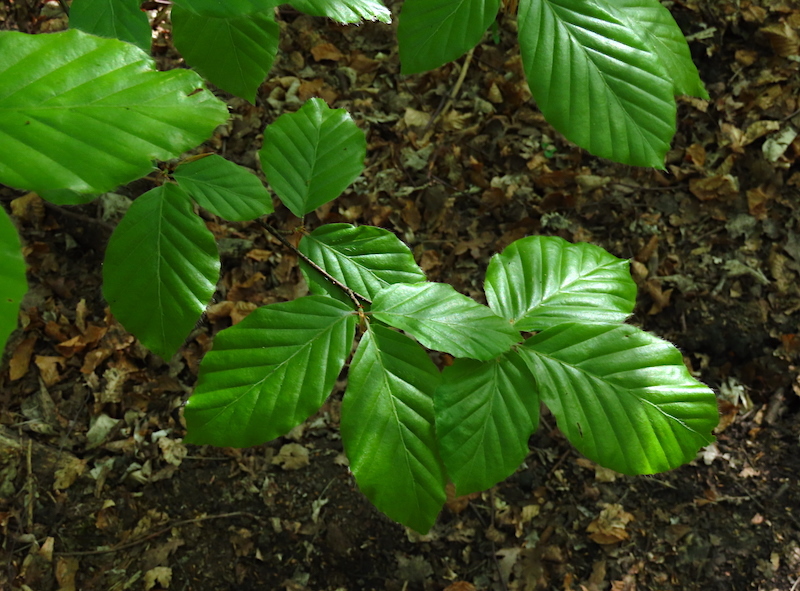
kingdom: Plantae
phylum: Tracheophyta
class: Magnoliopsida
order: Fagales
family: Fagaceae
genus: Fagus
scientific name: Fagus sylvatica
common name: Beech
